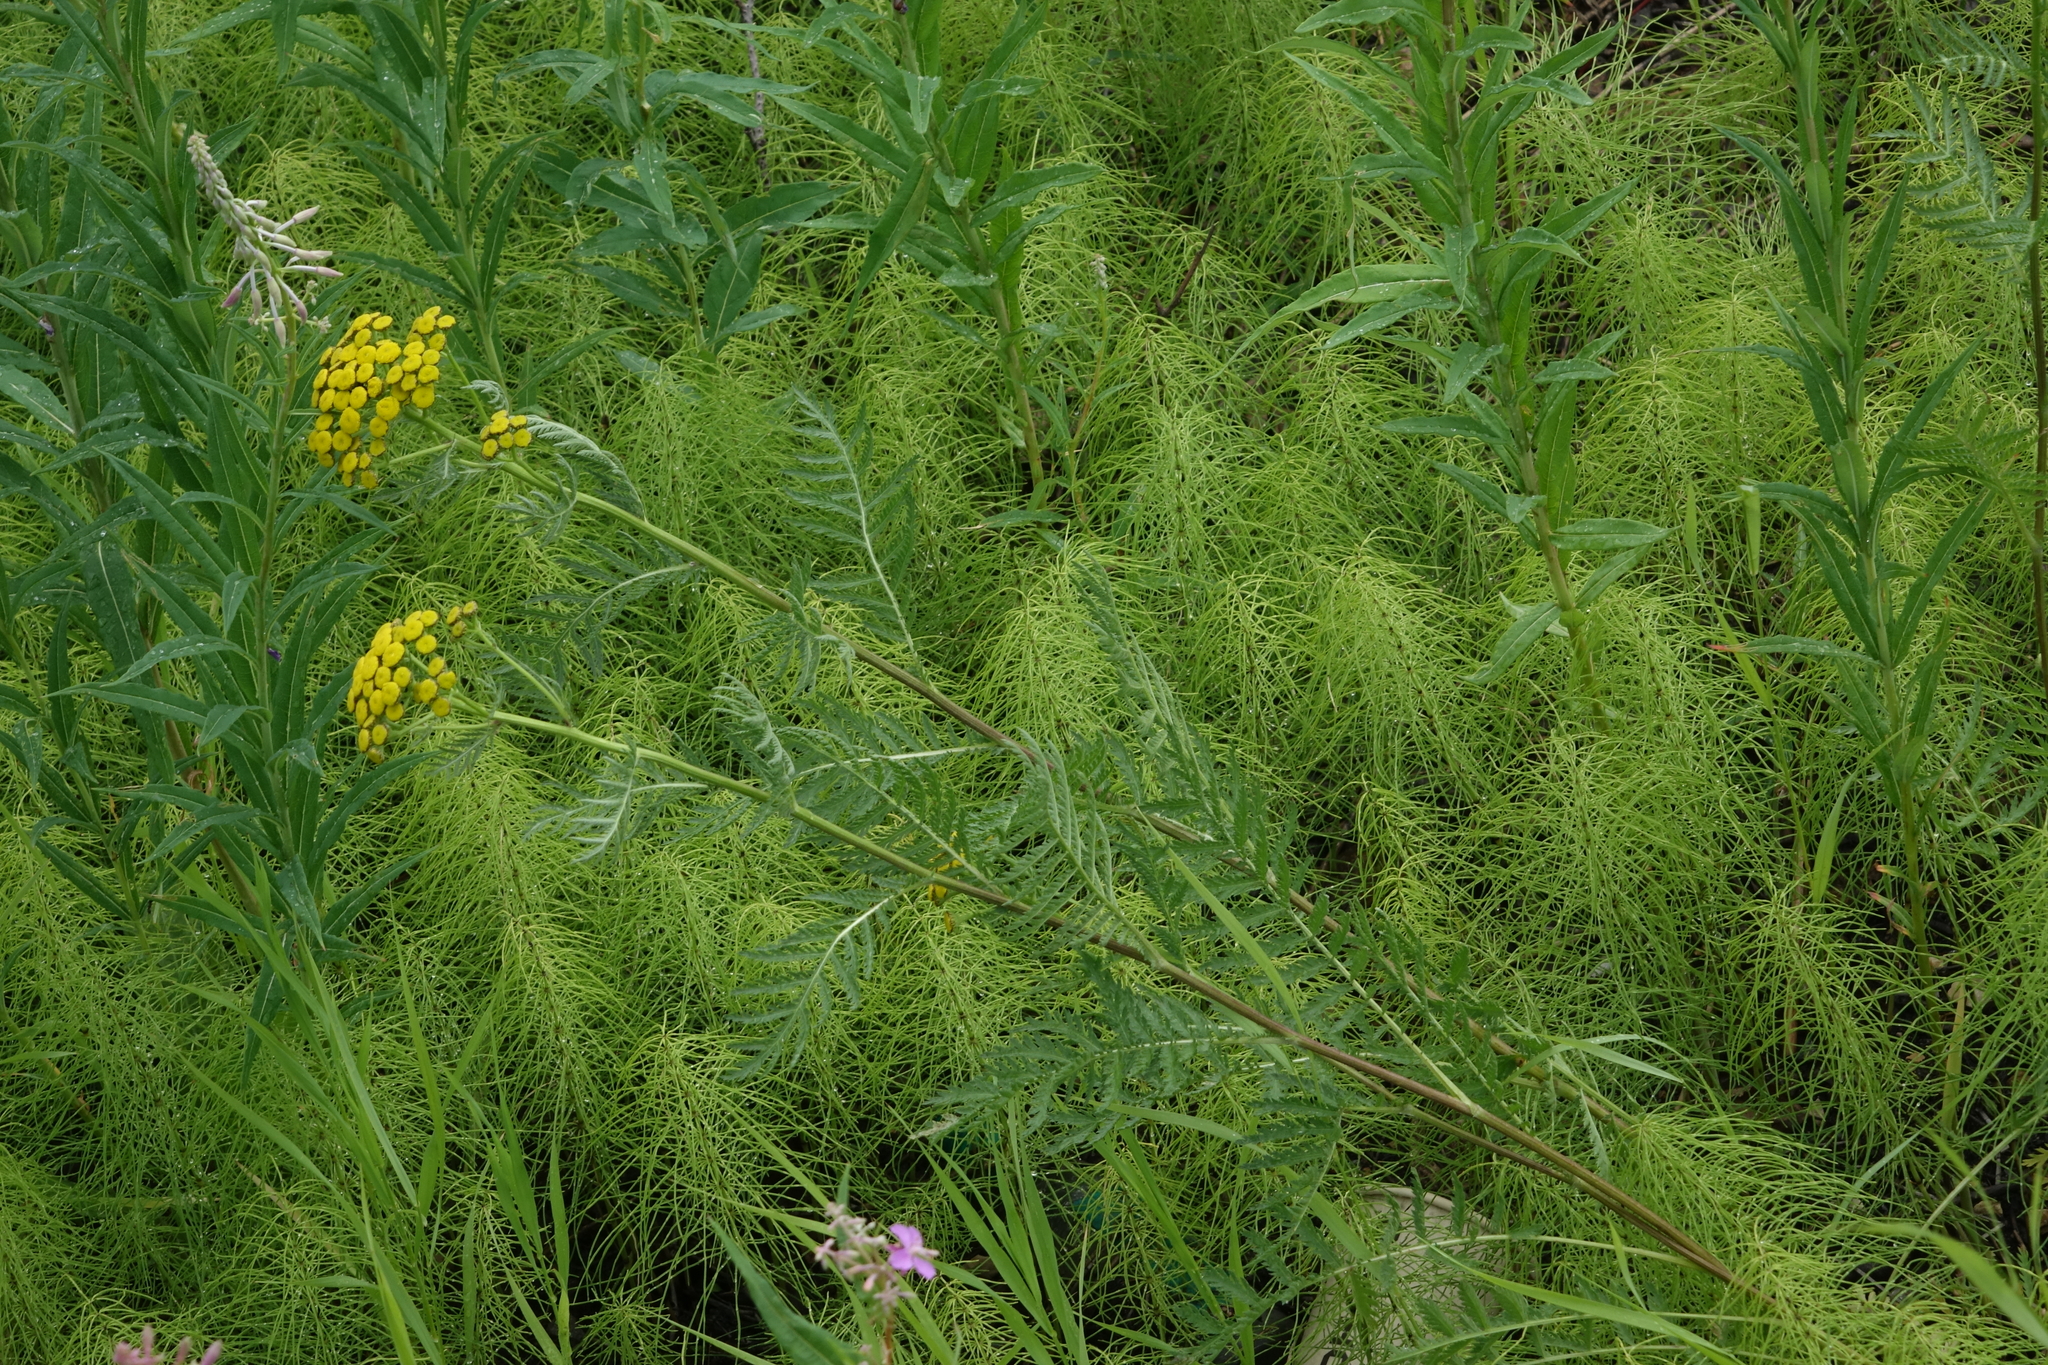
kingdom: Plantae
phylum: Tracheophyta
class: Polypodiopsida
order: Equisetales
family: Equisetaceae
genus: Equisetum
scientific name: Equisetum pratense
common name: Meadow horsetail
